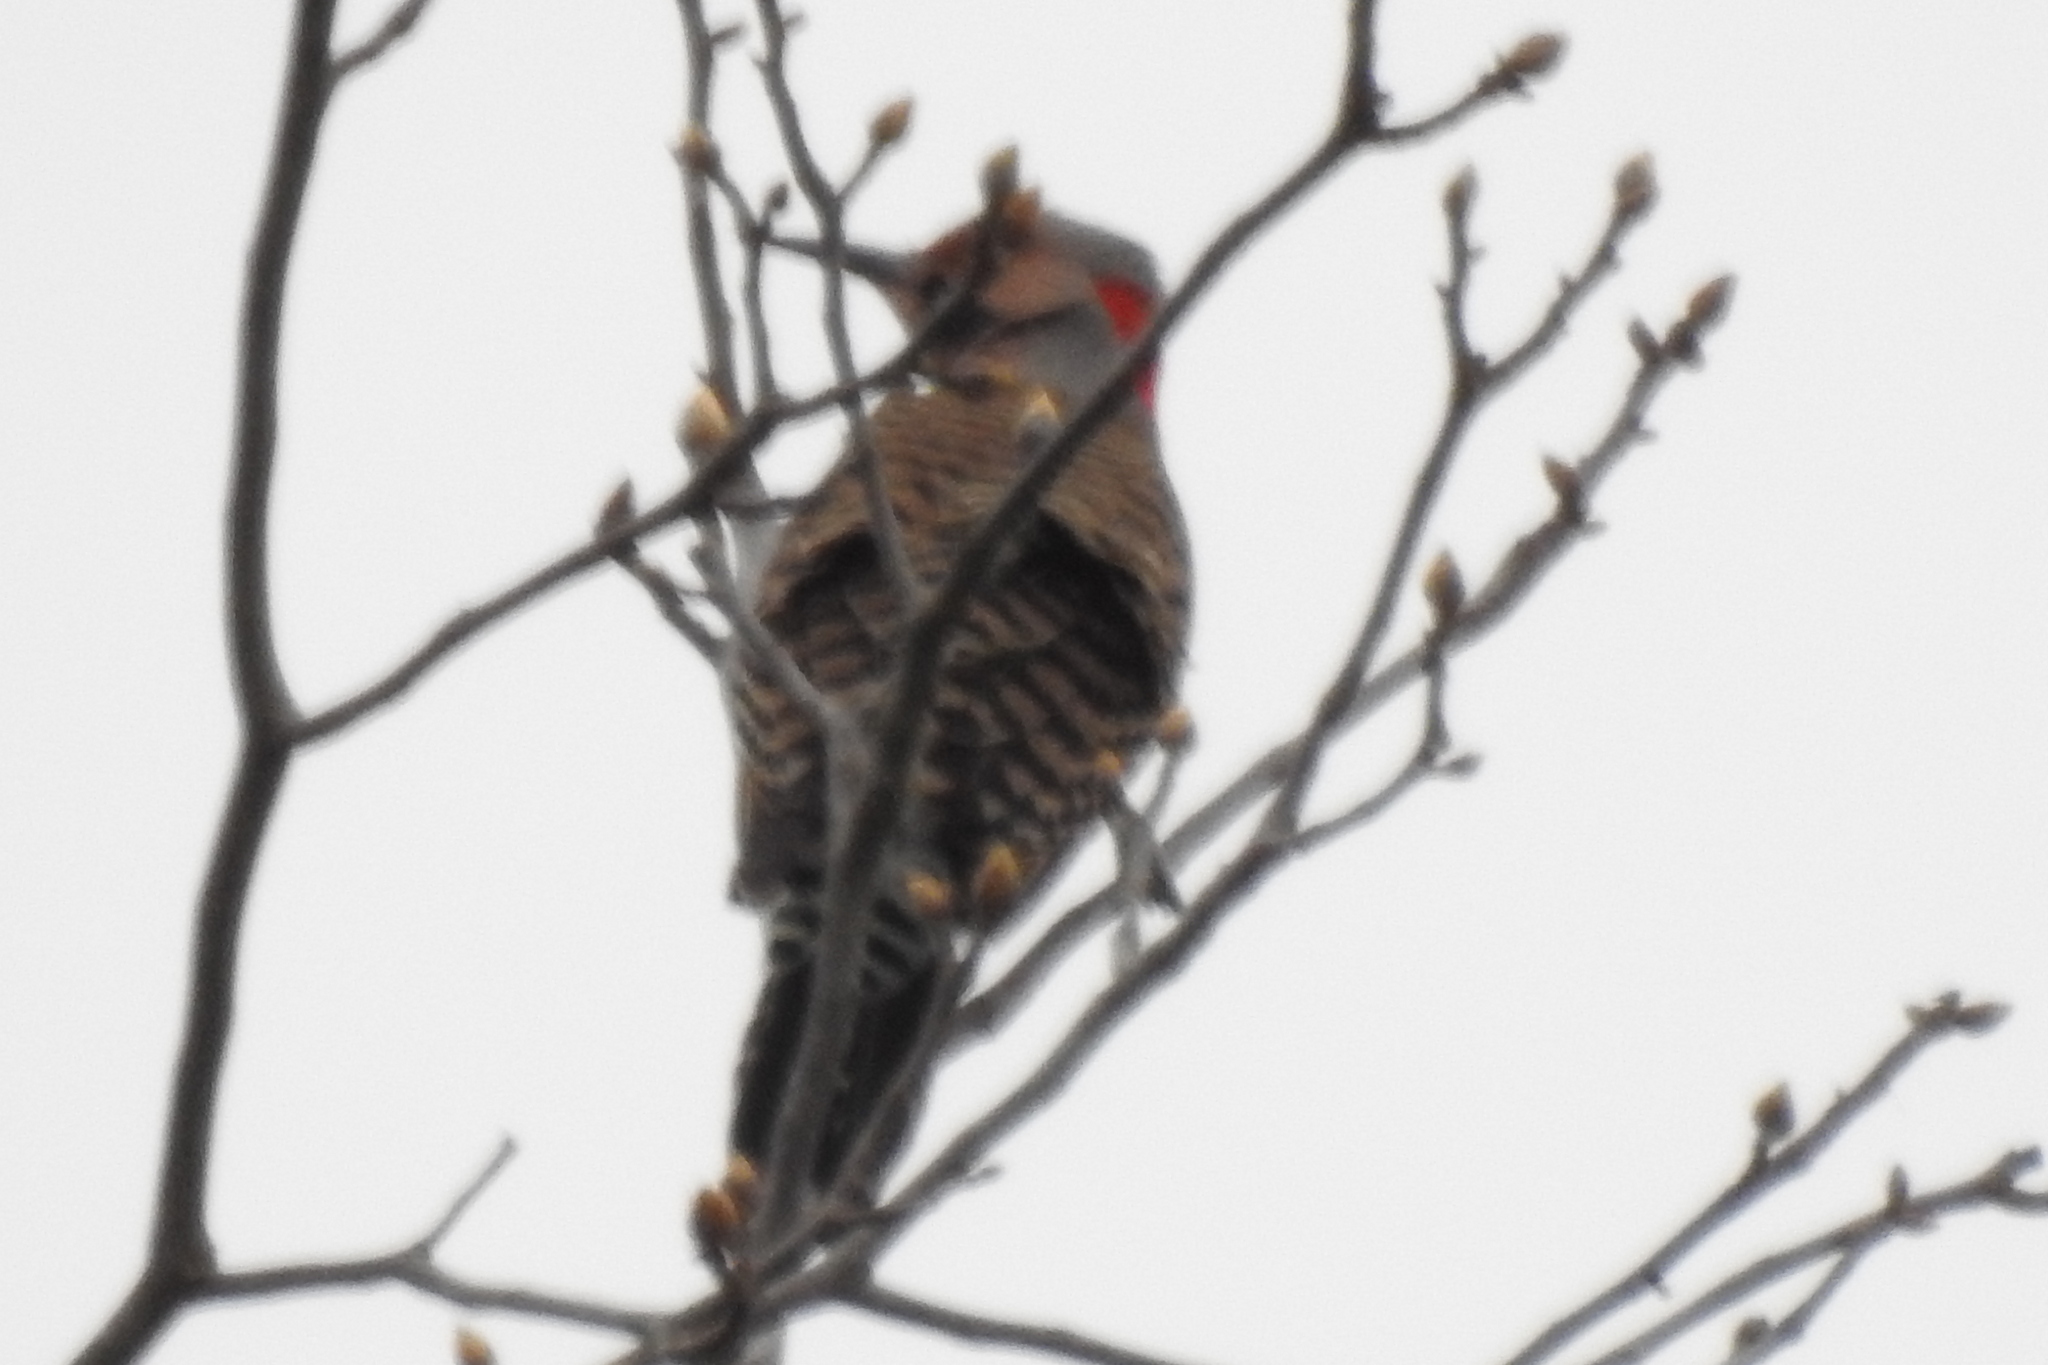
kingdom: Animalia
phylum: Chordata
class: Aves
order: Piciformes
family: Picidae
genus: Colaptes
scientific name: Colaptes auratus
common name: Northern flicker
